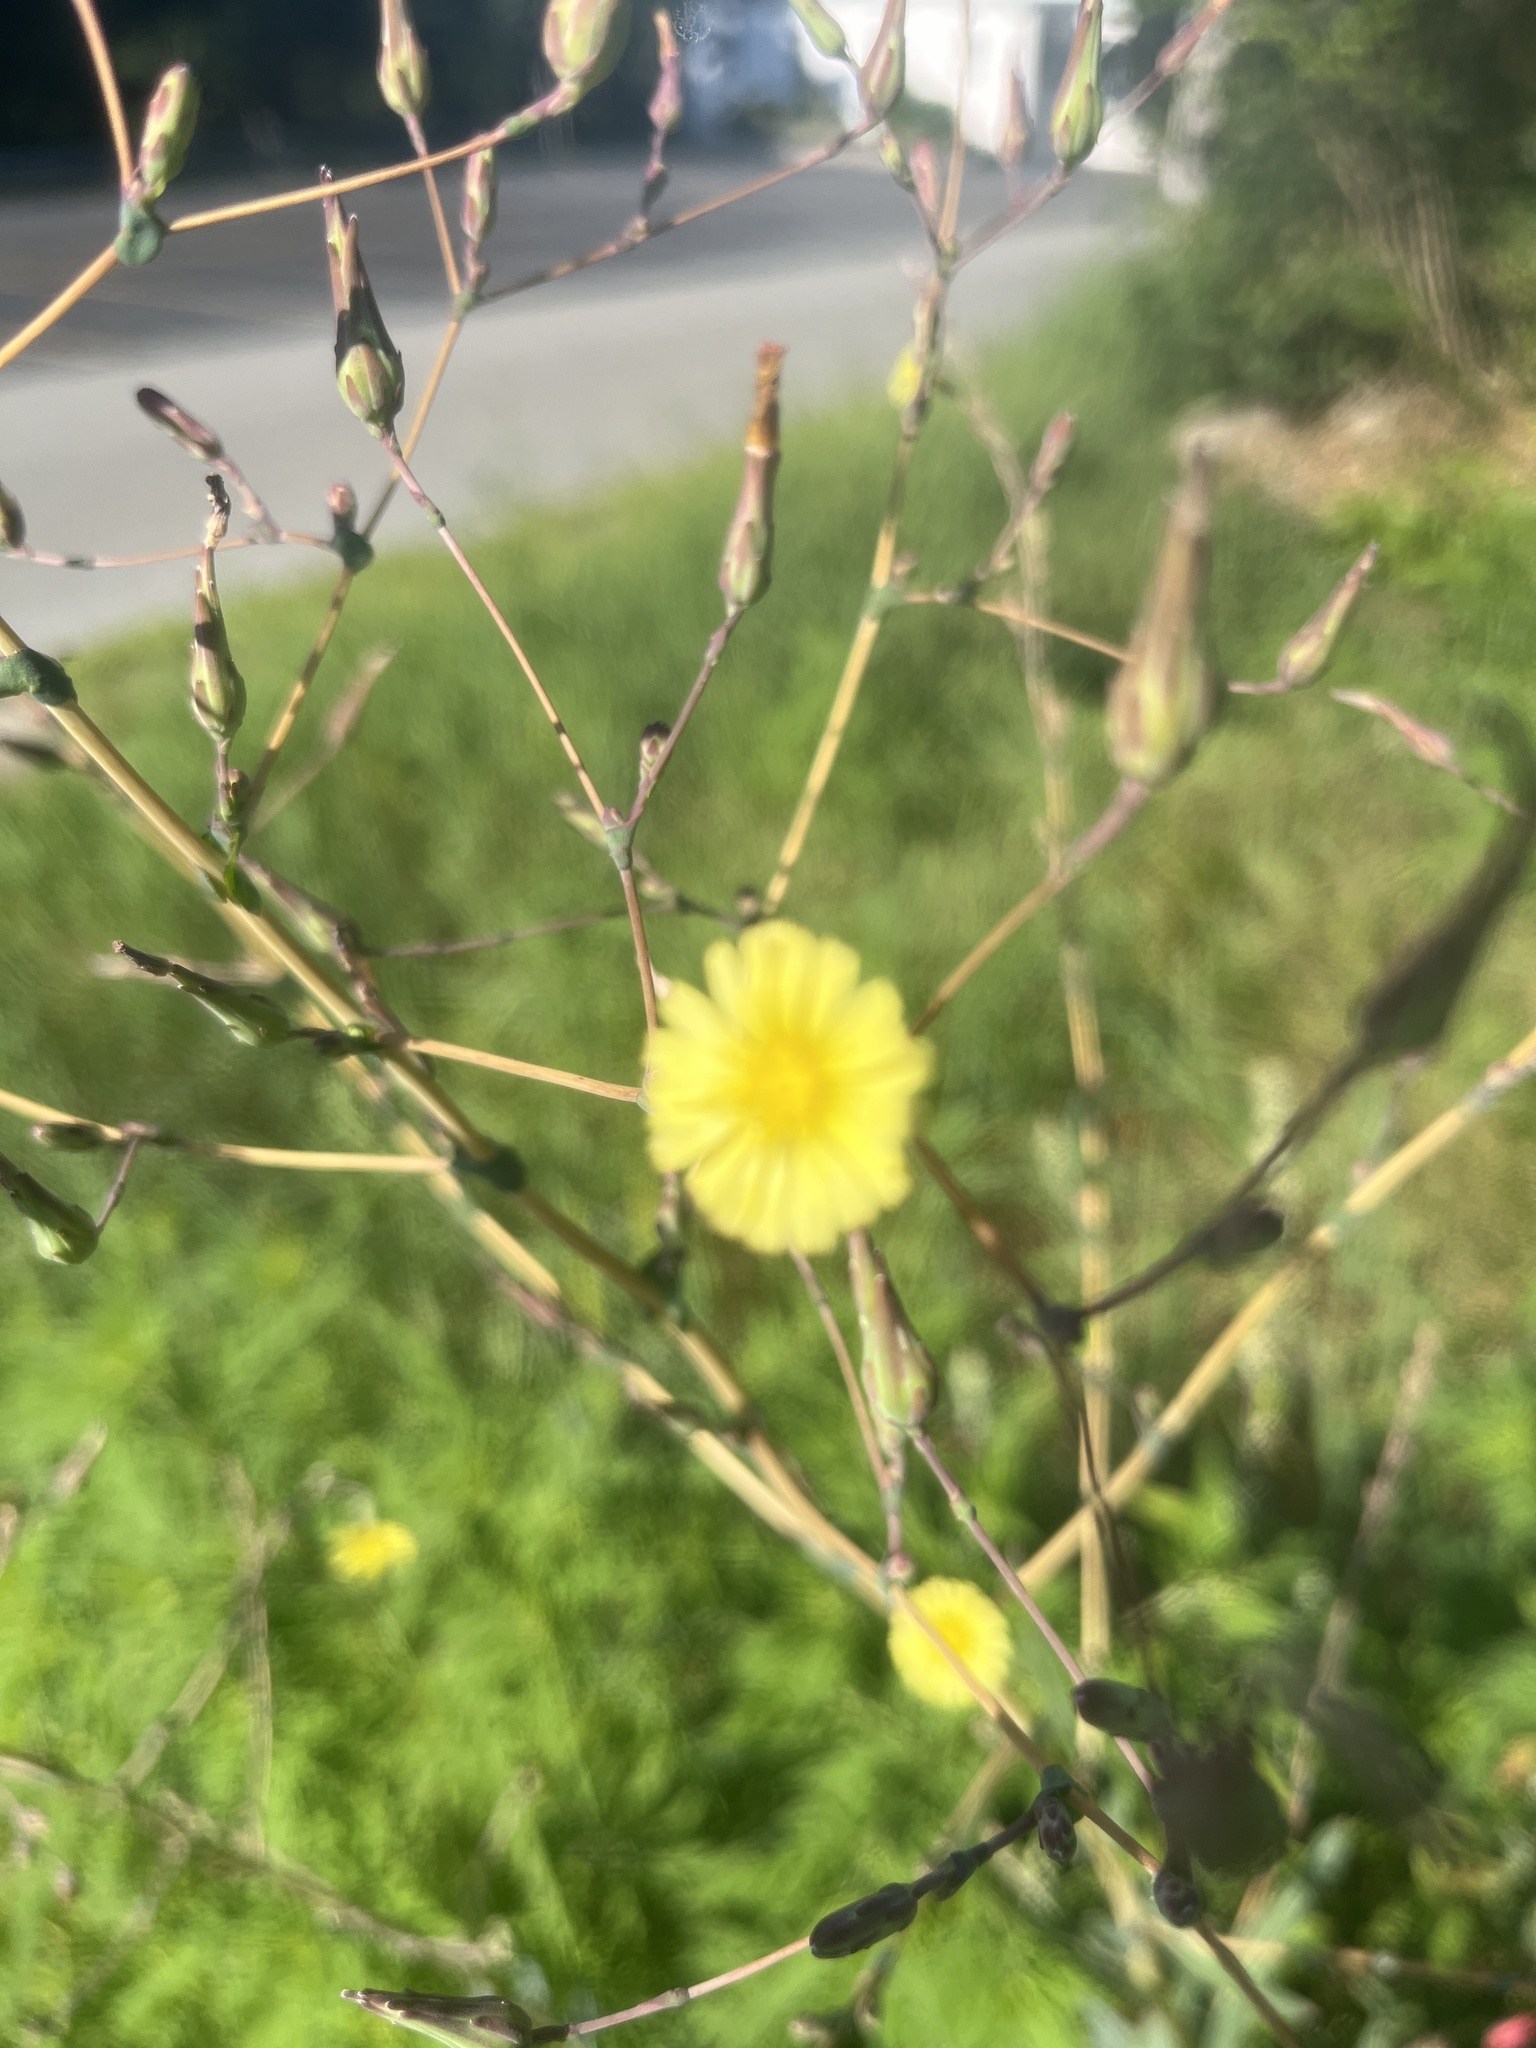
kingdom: Plantae
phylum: Tracheophyta
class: Magnoliopsida
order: Asterales
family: Asteraceae
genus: Lactuca
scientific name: Lactuca serriola
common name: Prickly lettuce
